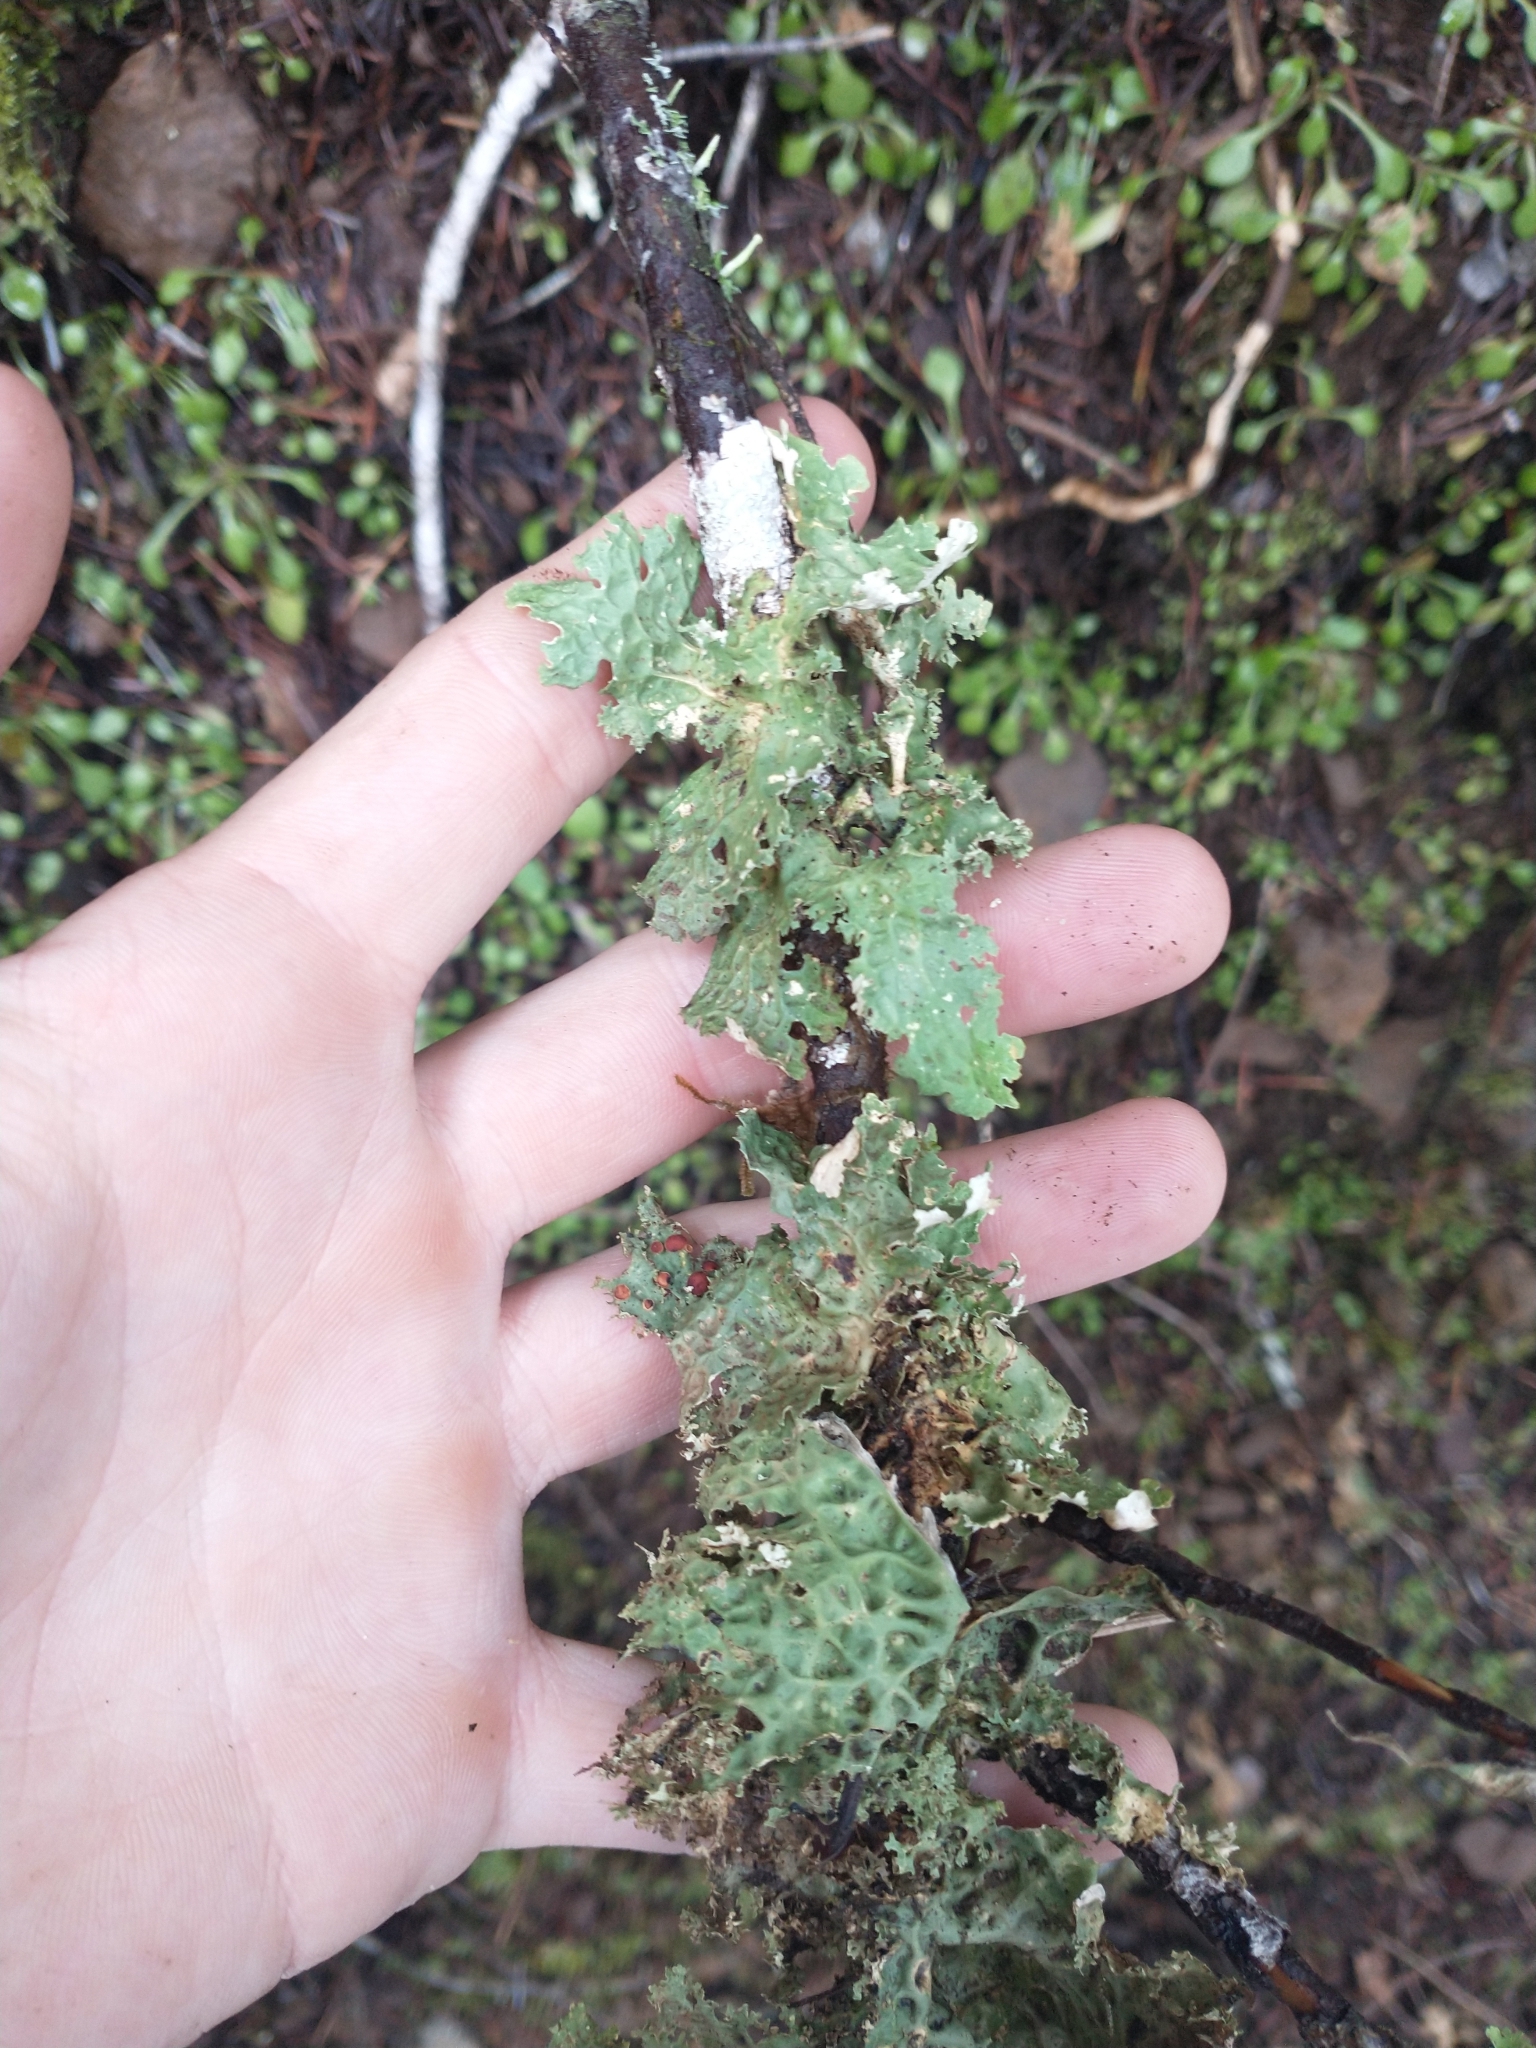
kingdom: Fungi
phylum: Ascomycota
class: Lecanoromycetes
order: Peltigerales
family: Lobariaceae
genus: Lobaria
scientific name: Lobaria oregana
